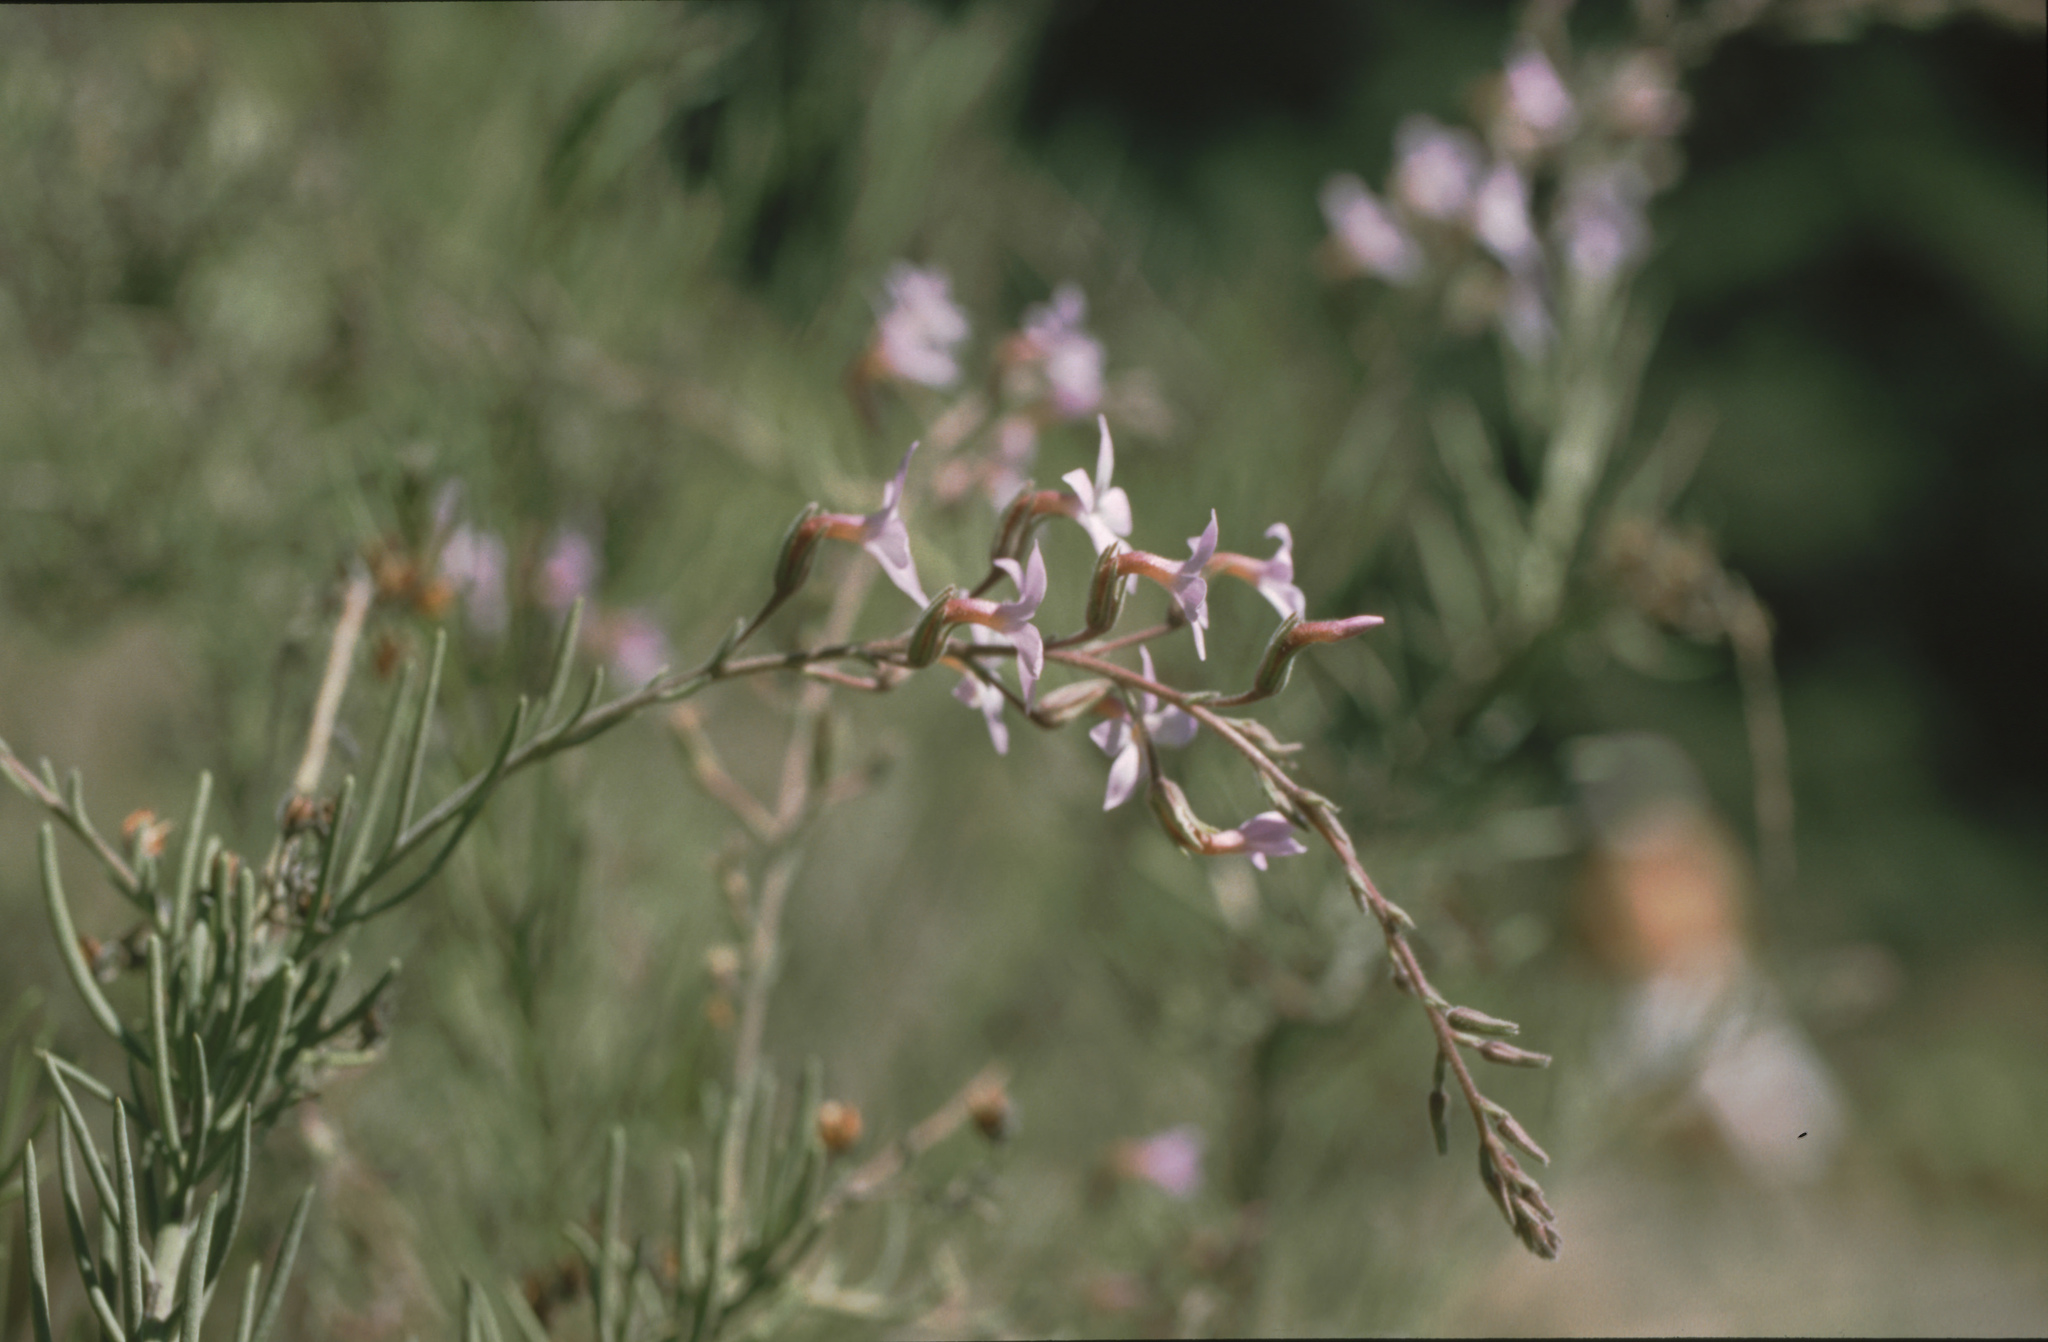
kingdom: Plantae
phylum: Tracheophyta
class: Magnoliopsida
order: Lamiales
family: Plantaginaceae
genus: Campylanthus
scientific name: Campylanthus salsoloides
